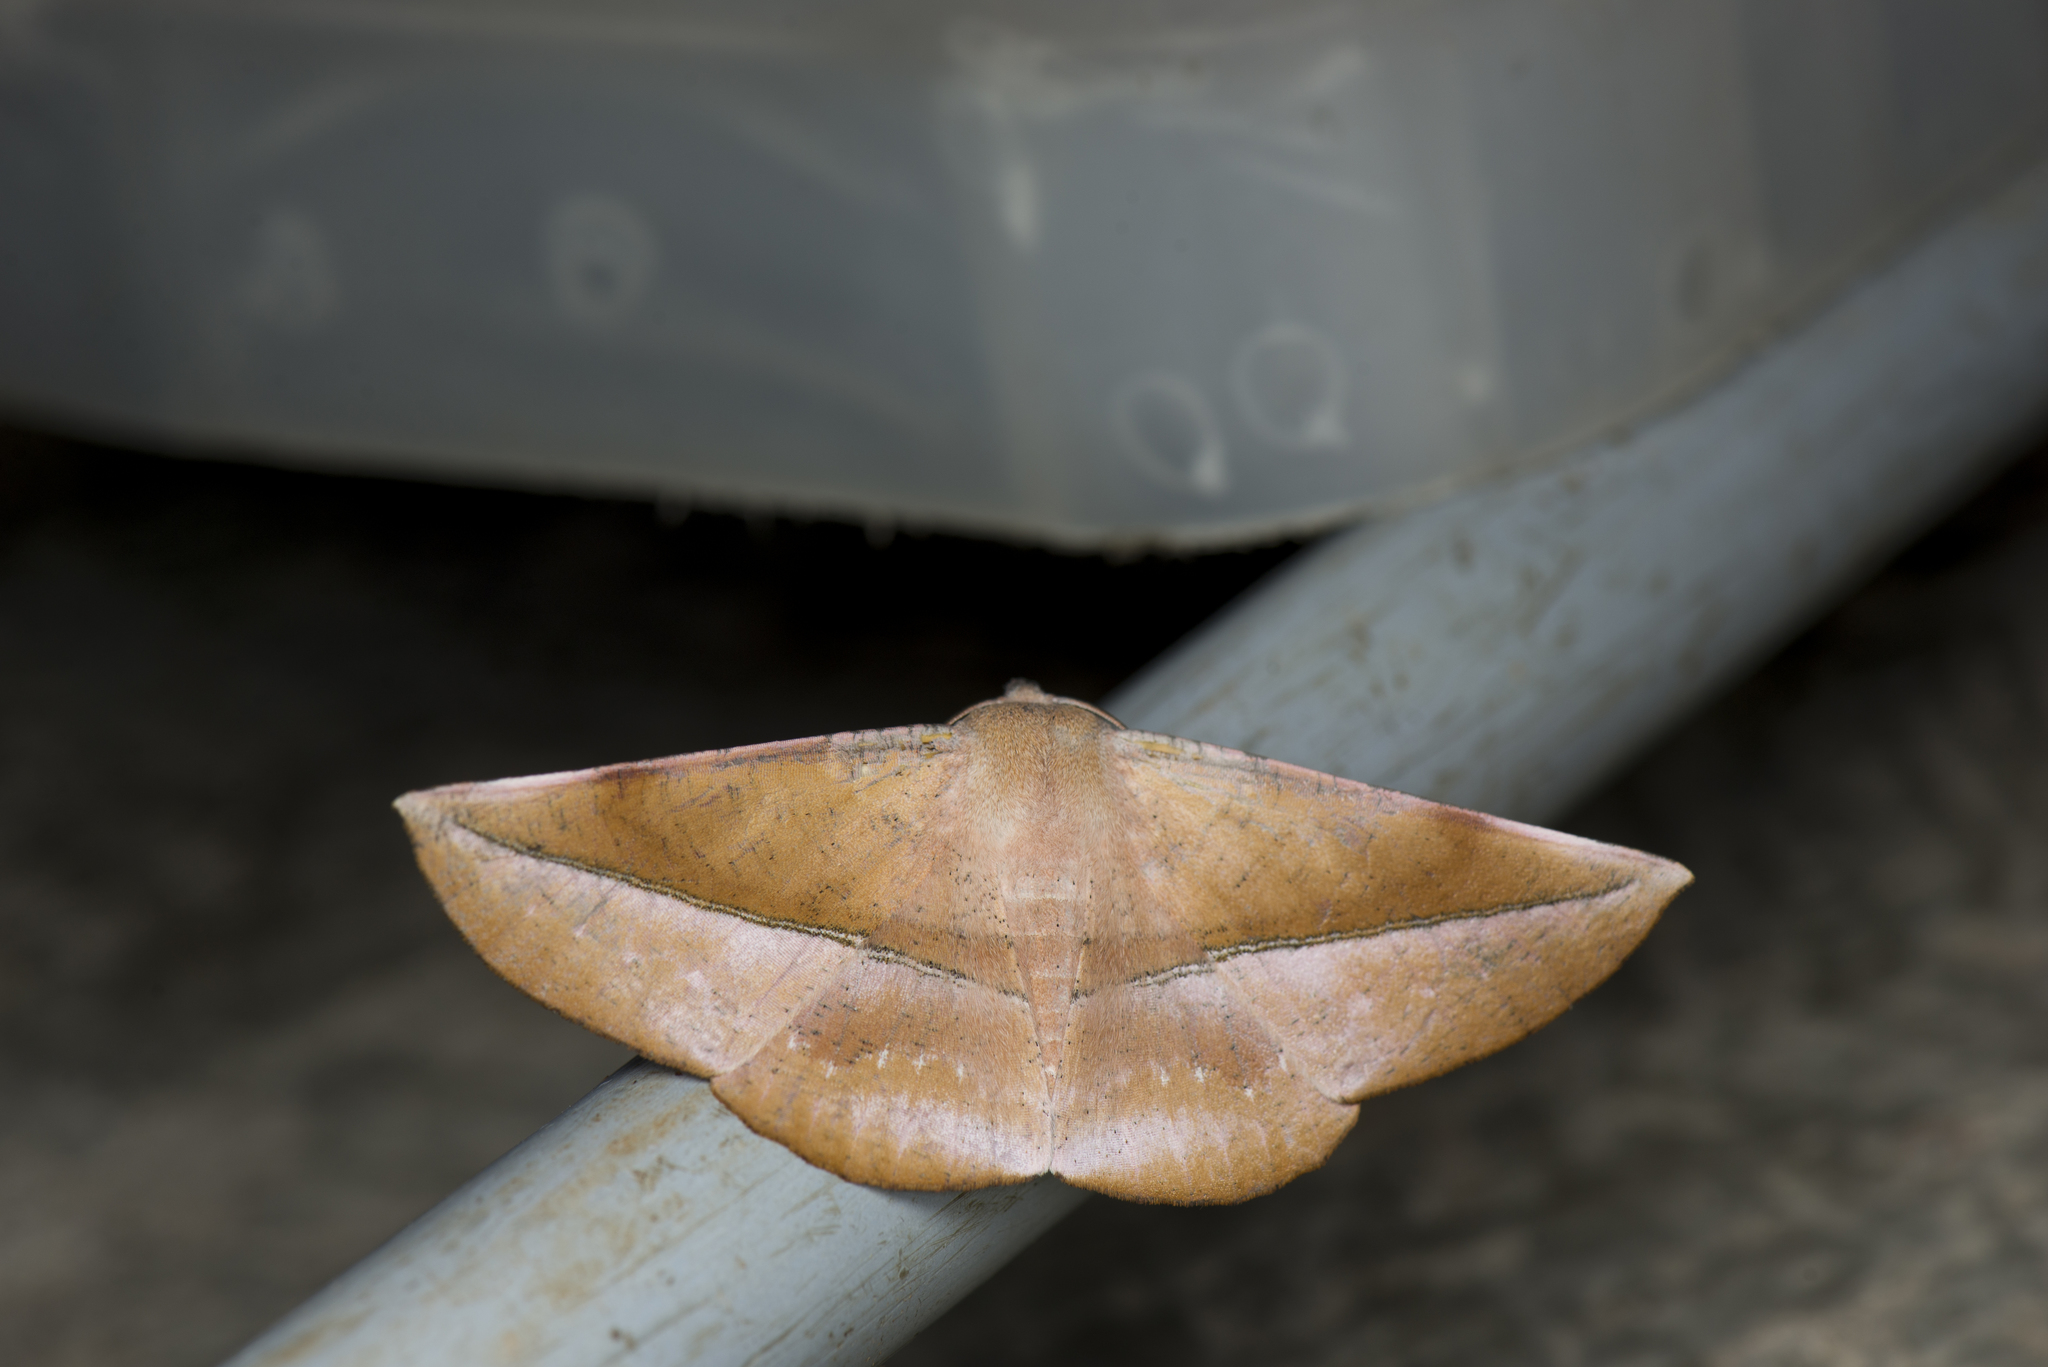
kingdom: Animalia
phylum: Arthropoda
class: Insecta
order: Lepidoptera
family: Geometridae
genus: Sarcinodes
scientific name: Sarcinodes yaeyamana
